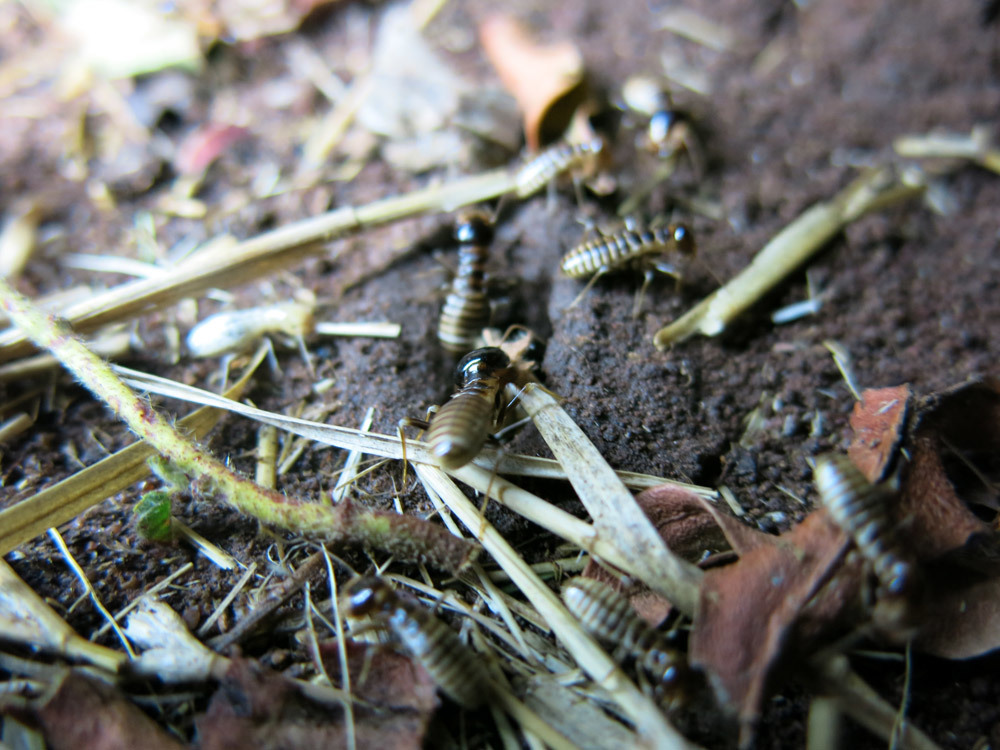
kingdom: Animalia
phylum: Arthropoda
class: Insecta
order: Blattodea
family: Hodotermitidae
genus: Hodotermes
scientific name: Hodotermes mossambicus
